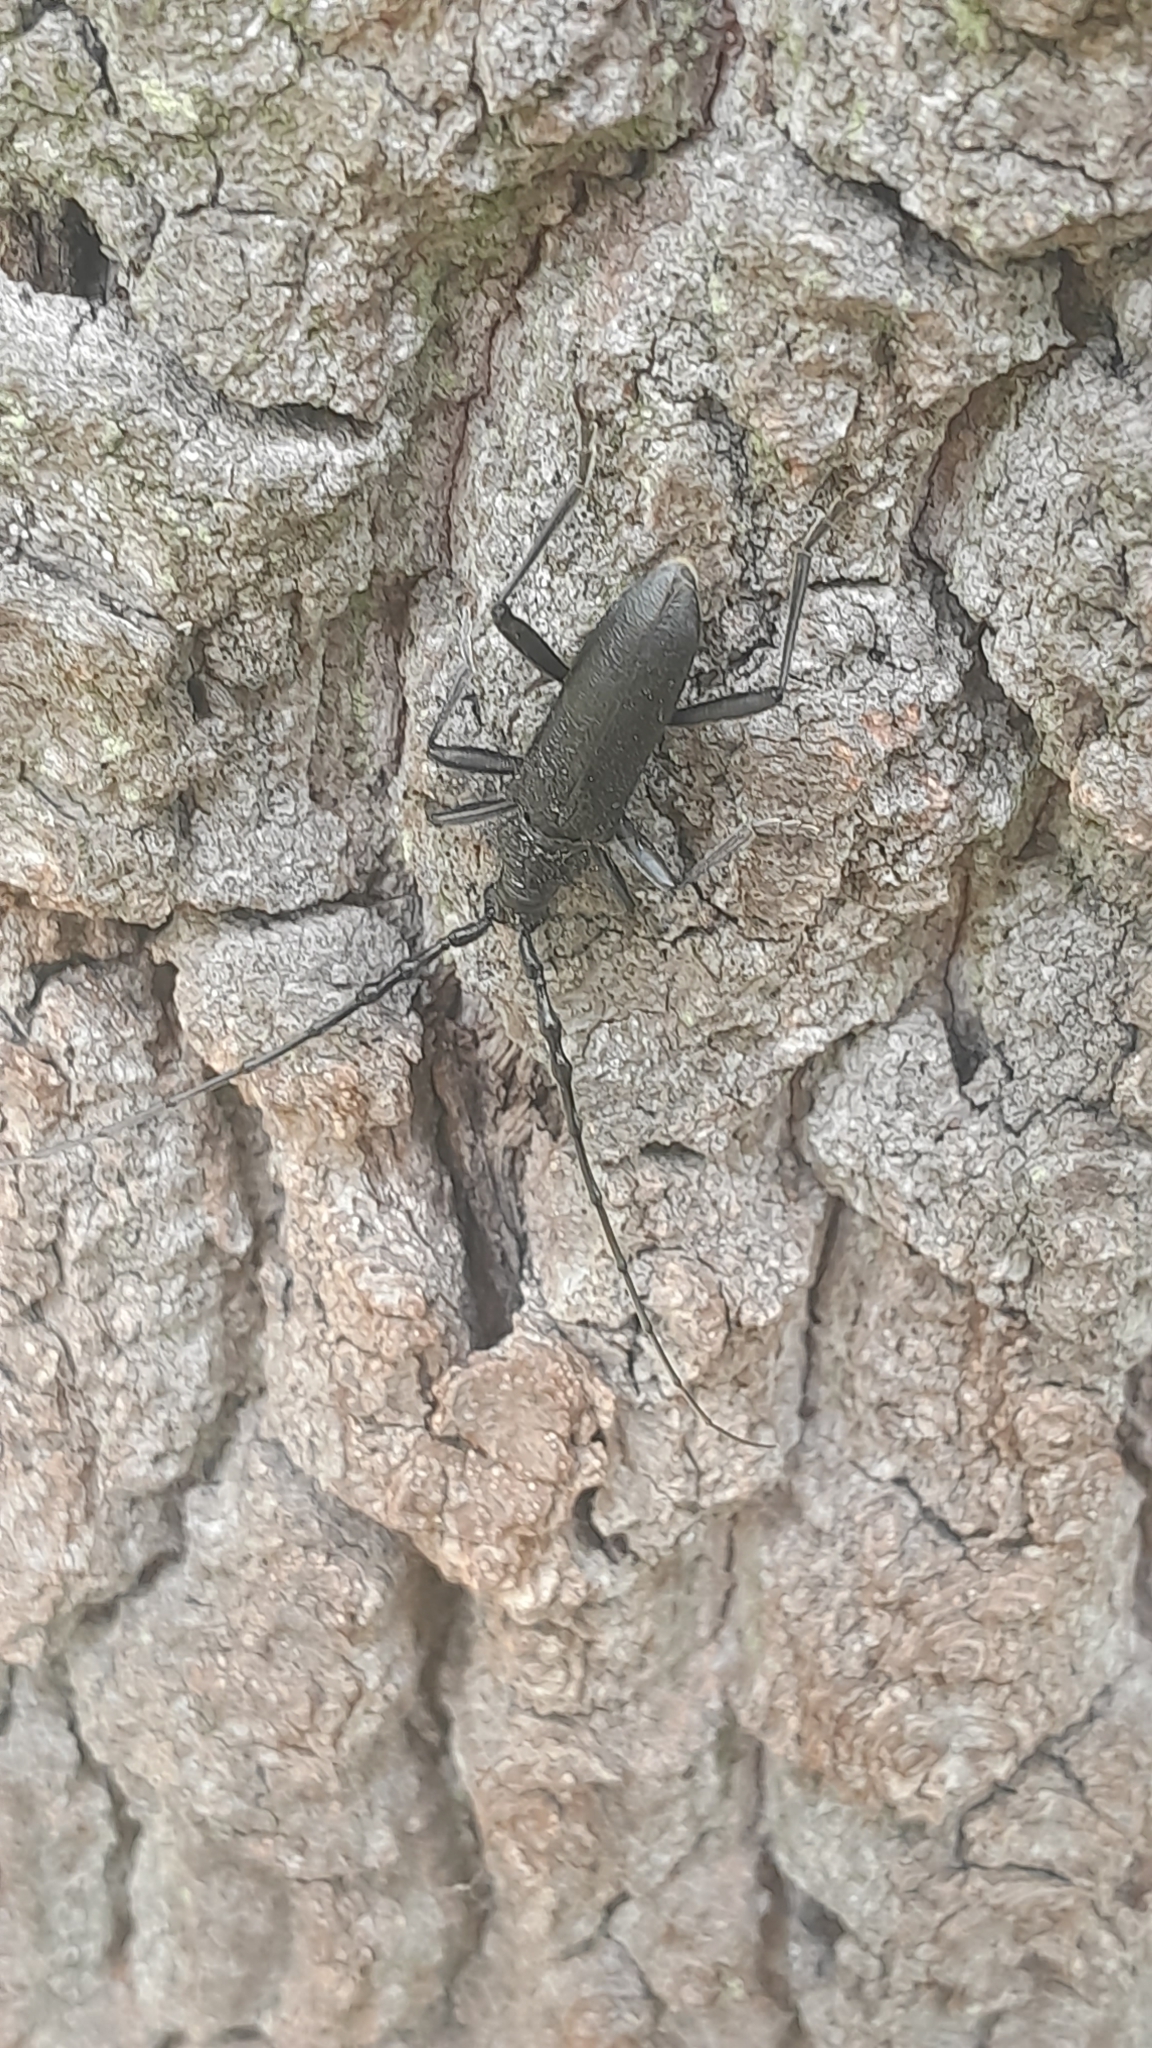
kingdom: Animalia
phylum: Arthropoda
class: Insecta
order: Coleoptera
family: Cerambycidae
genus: Cerambyx
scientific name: Cerambyx scopolii
